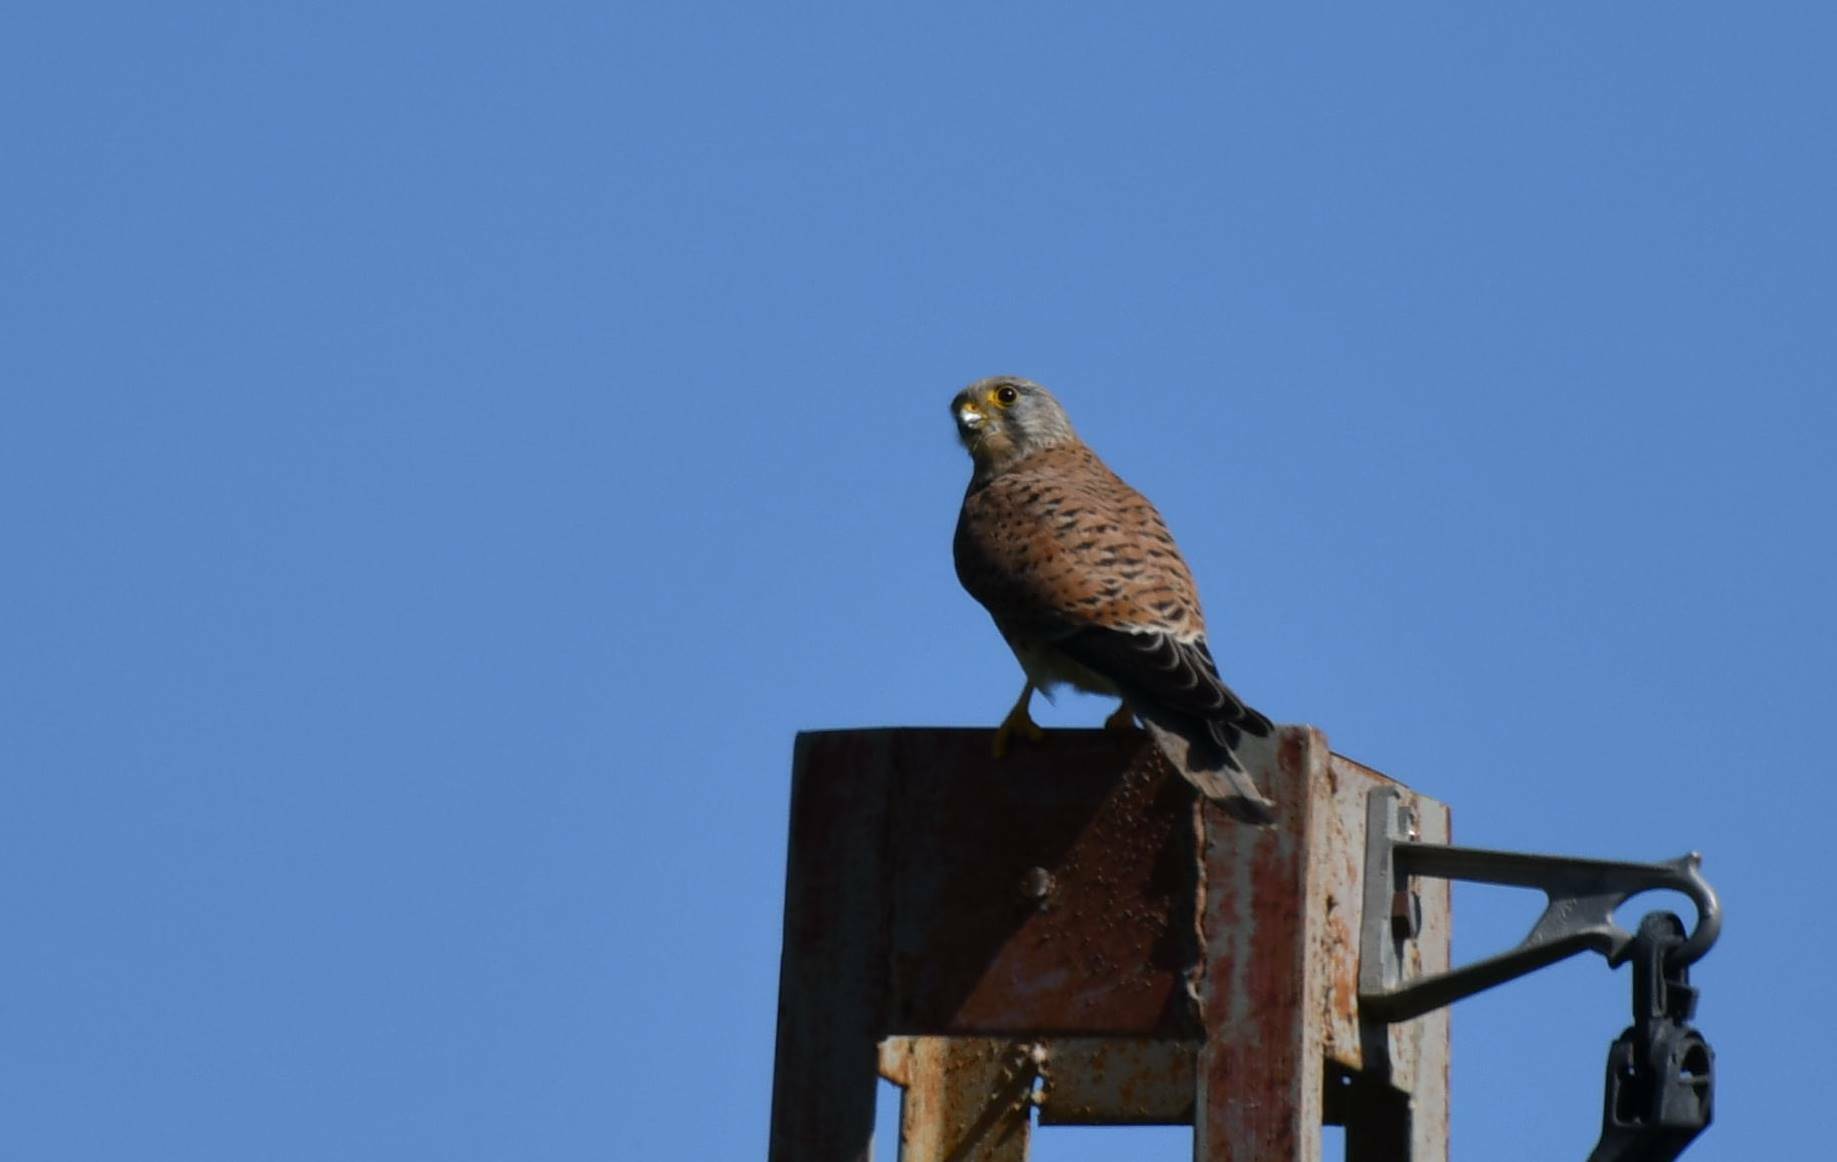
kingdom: Animalia
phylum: Chordata
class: Aves
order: Falconiformes
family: Falconidae
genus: Falco
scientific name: Falco tinnunculus
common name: Common kestrel
